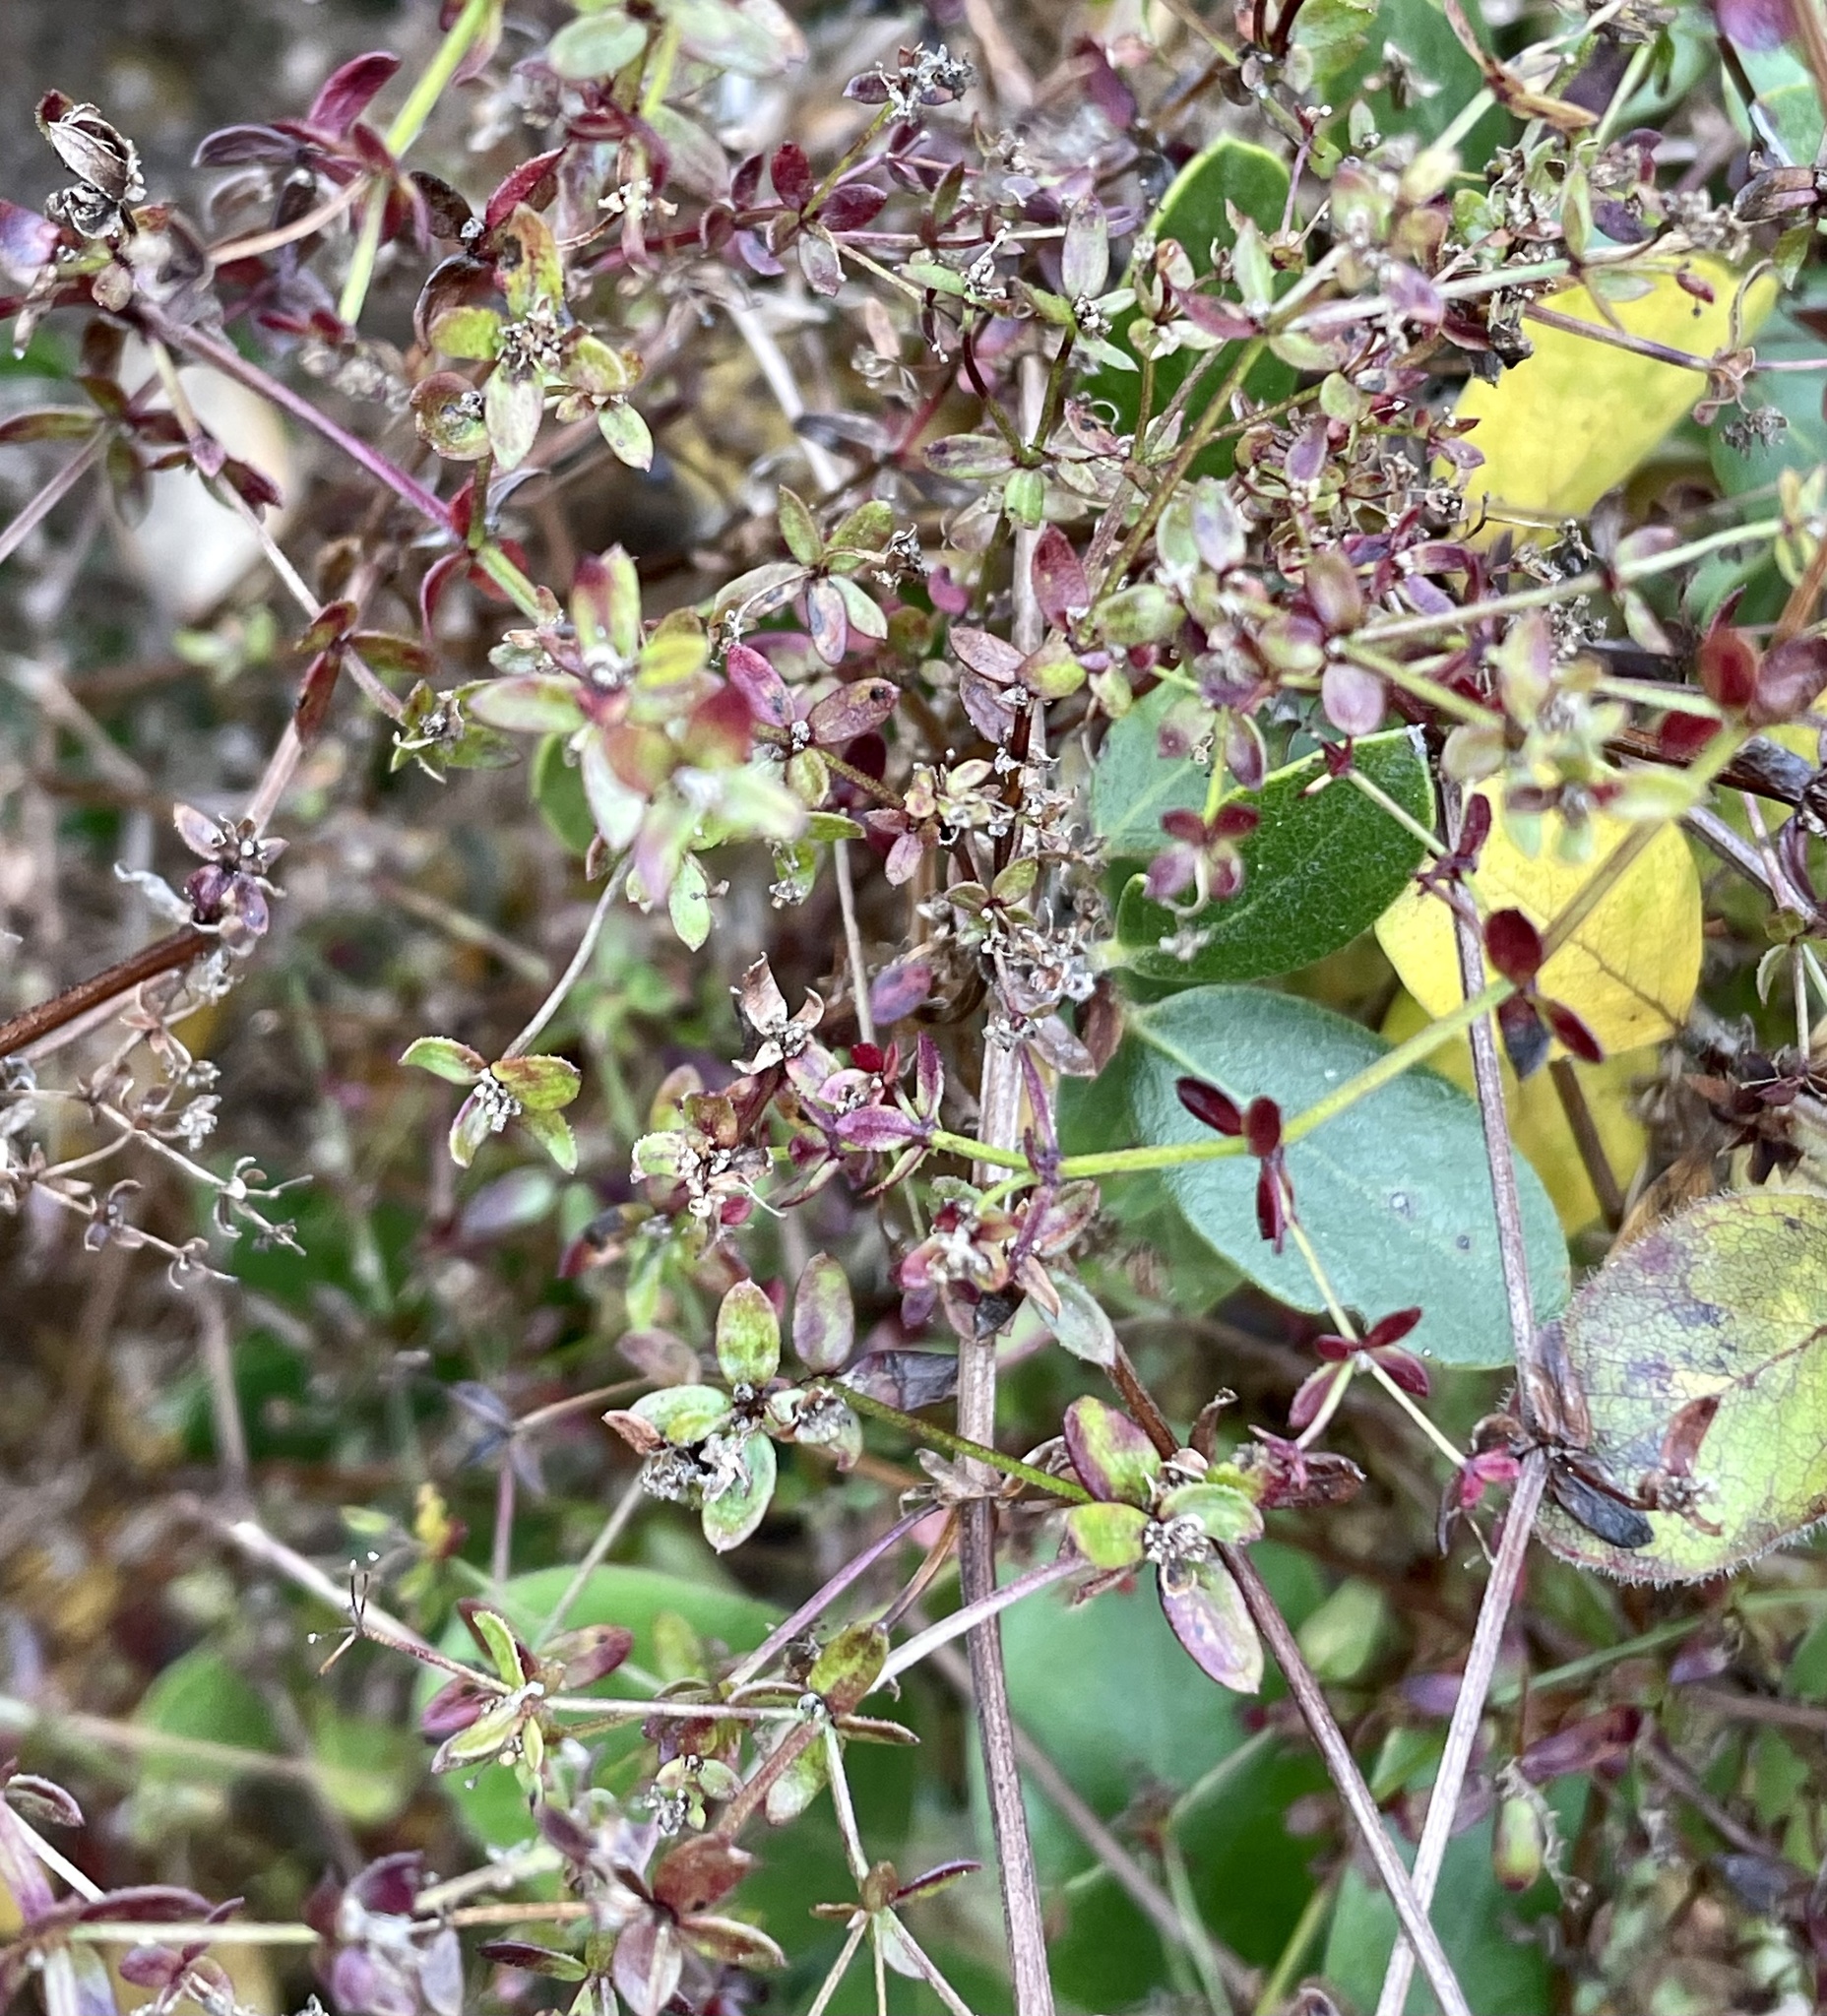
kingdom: Plantae
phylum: Tracheophyta
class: Magnoliopsida
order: Gentianales
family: Rubiaceae
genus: Galium
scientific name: Galium porrigens
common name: Climbing bedstraw
